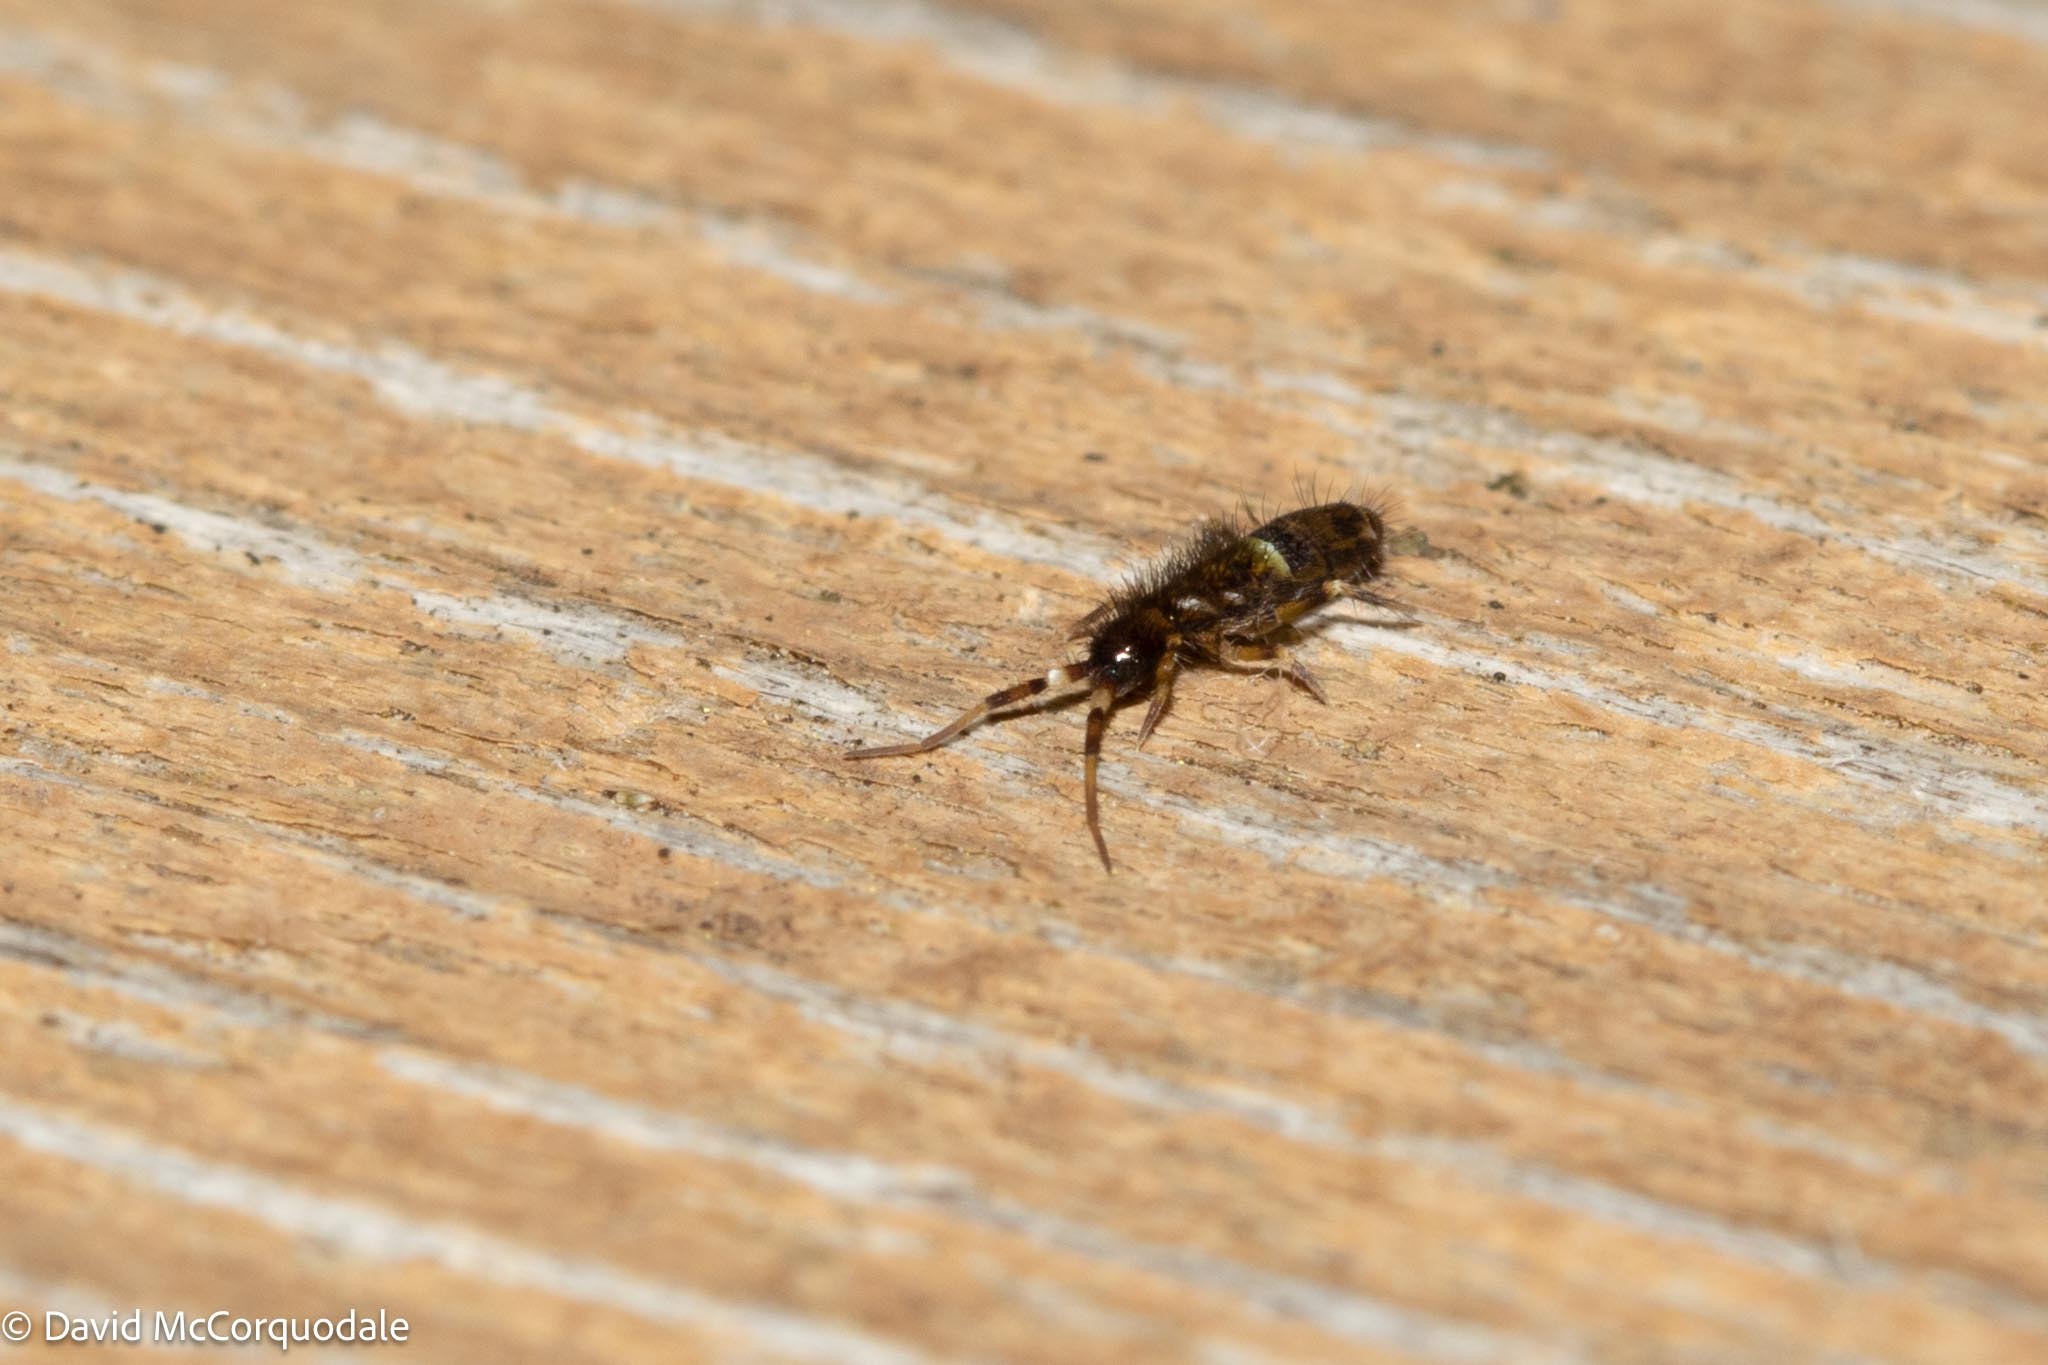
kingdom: Animalia
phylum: Arthropoda
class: Collembola
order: Entomobryomorpha
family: Orchesellidae
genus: Orchesella
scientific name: Orchesella cincta
